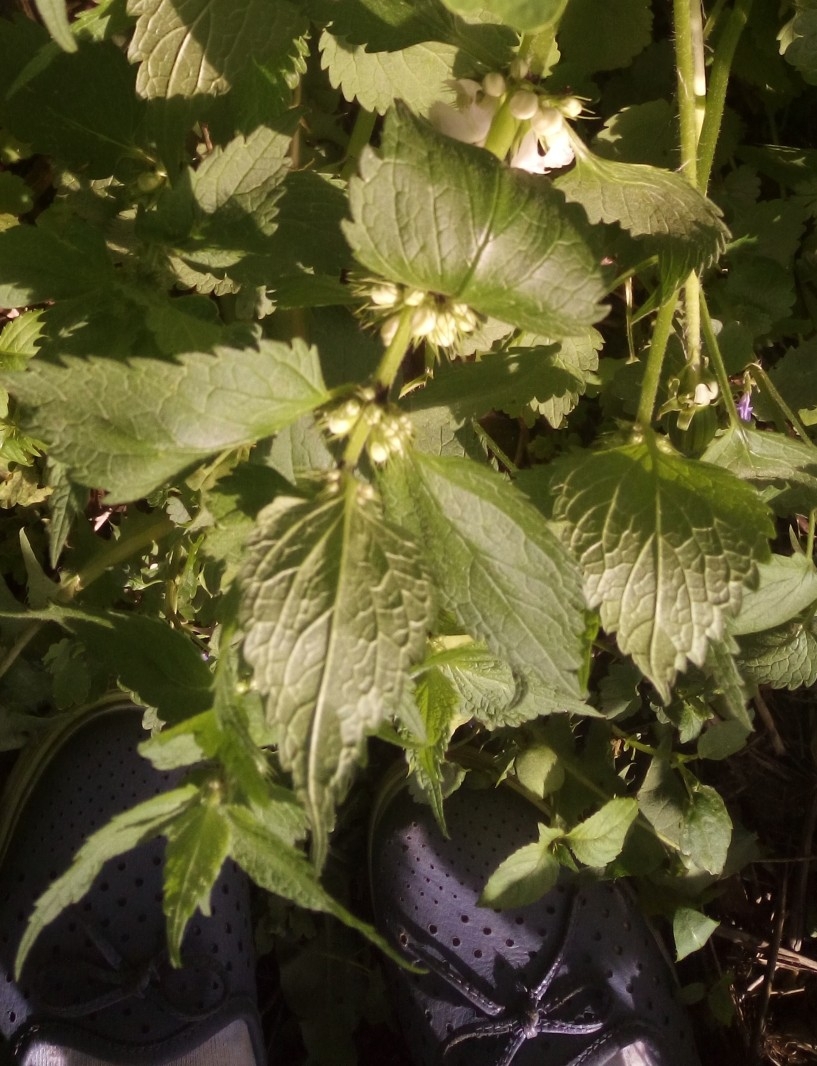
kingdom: Plantae
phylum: Tracheophyta
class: Magnoliopsida
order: Lamiales
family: Lamiaceae
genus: Lamium
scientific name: Lamium album
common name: White dead-nettle
